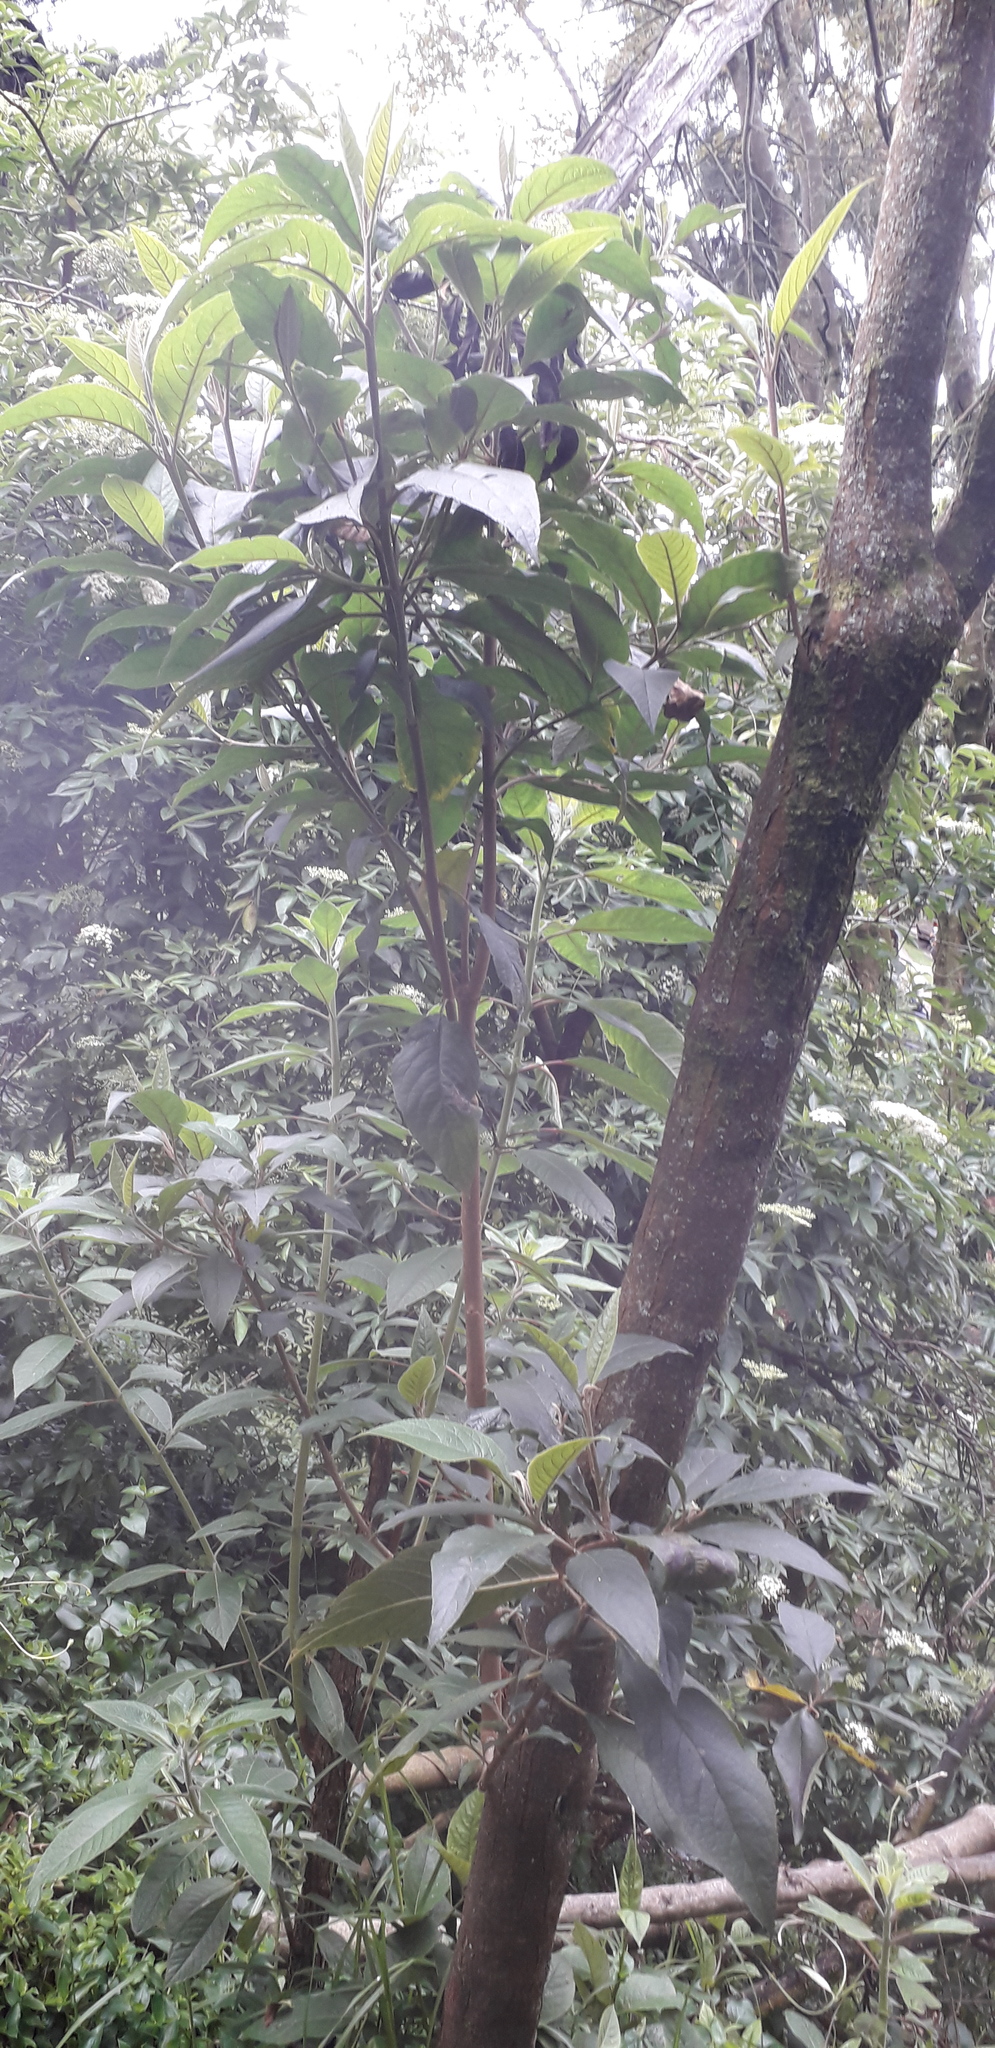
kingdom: Plantae
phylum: Tracheophyta
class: Magnoliopsida
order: Malpighiales
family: Salicaceae
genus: Abatia
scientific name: Abatia parviflora
